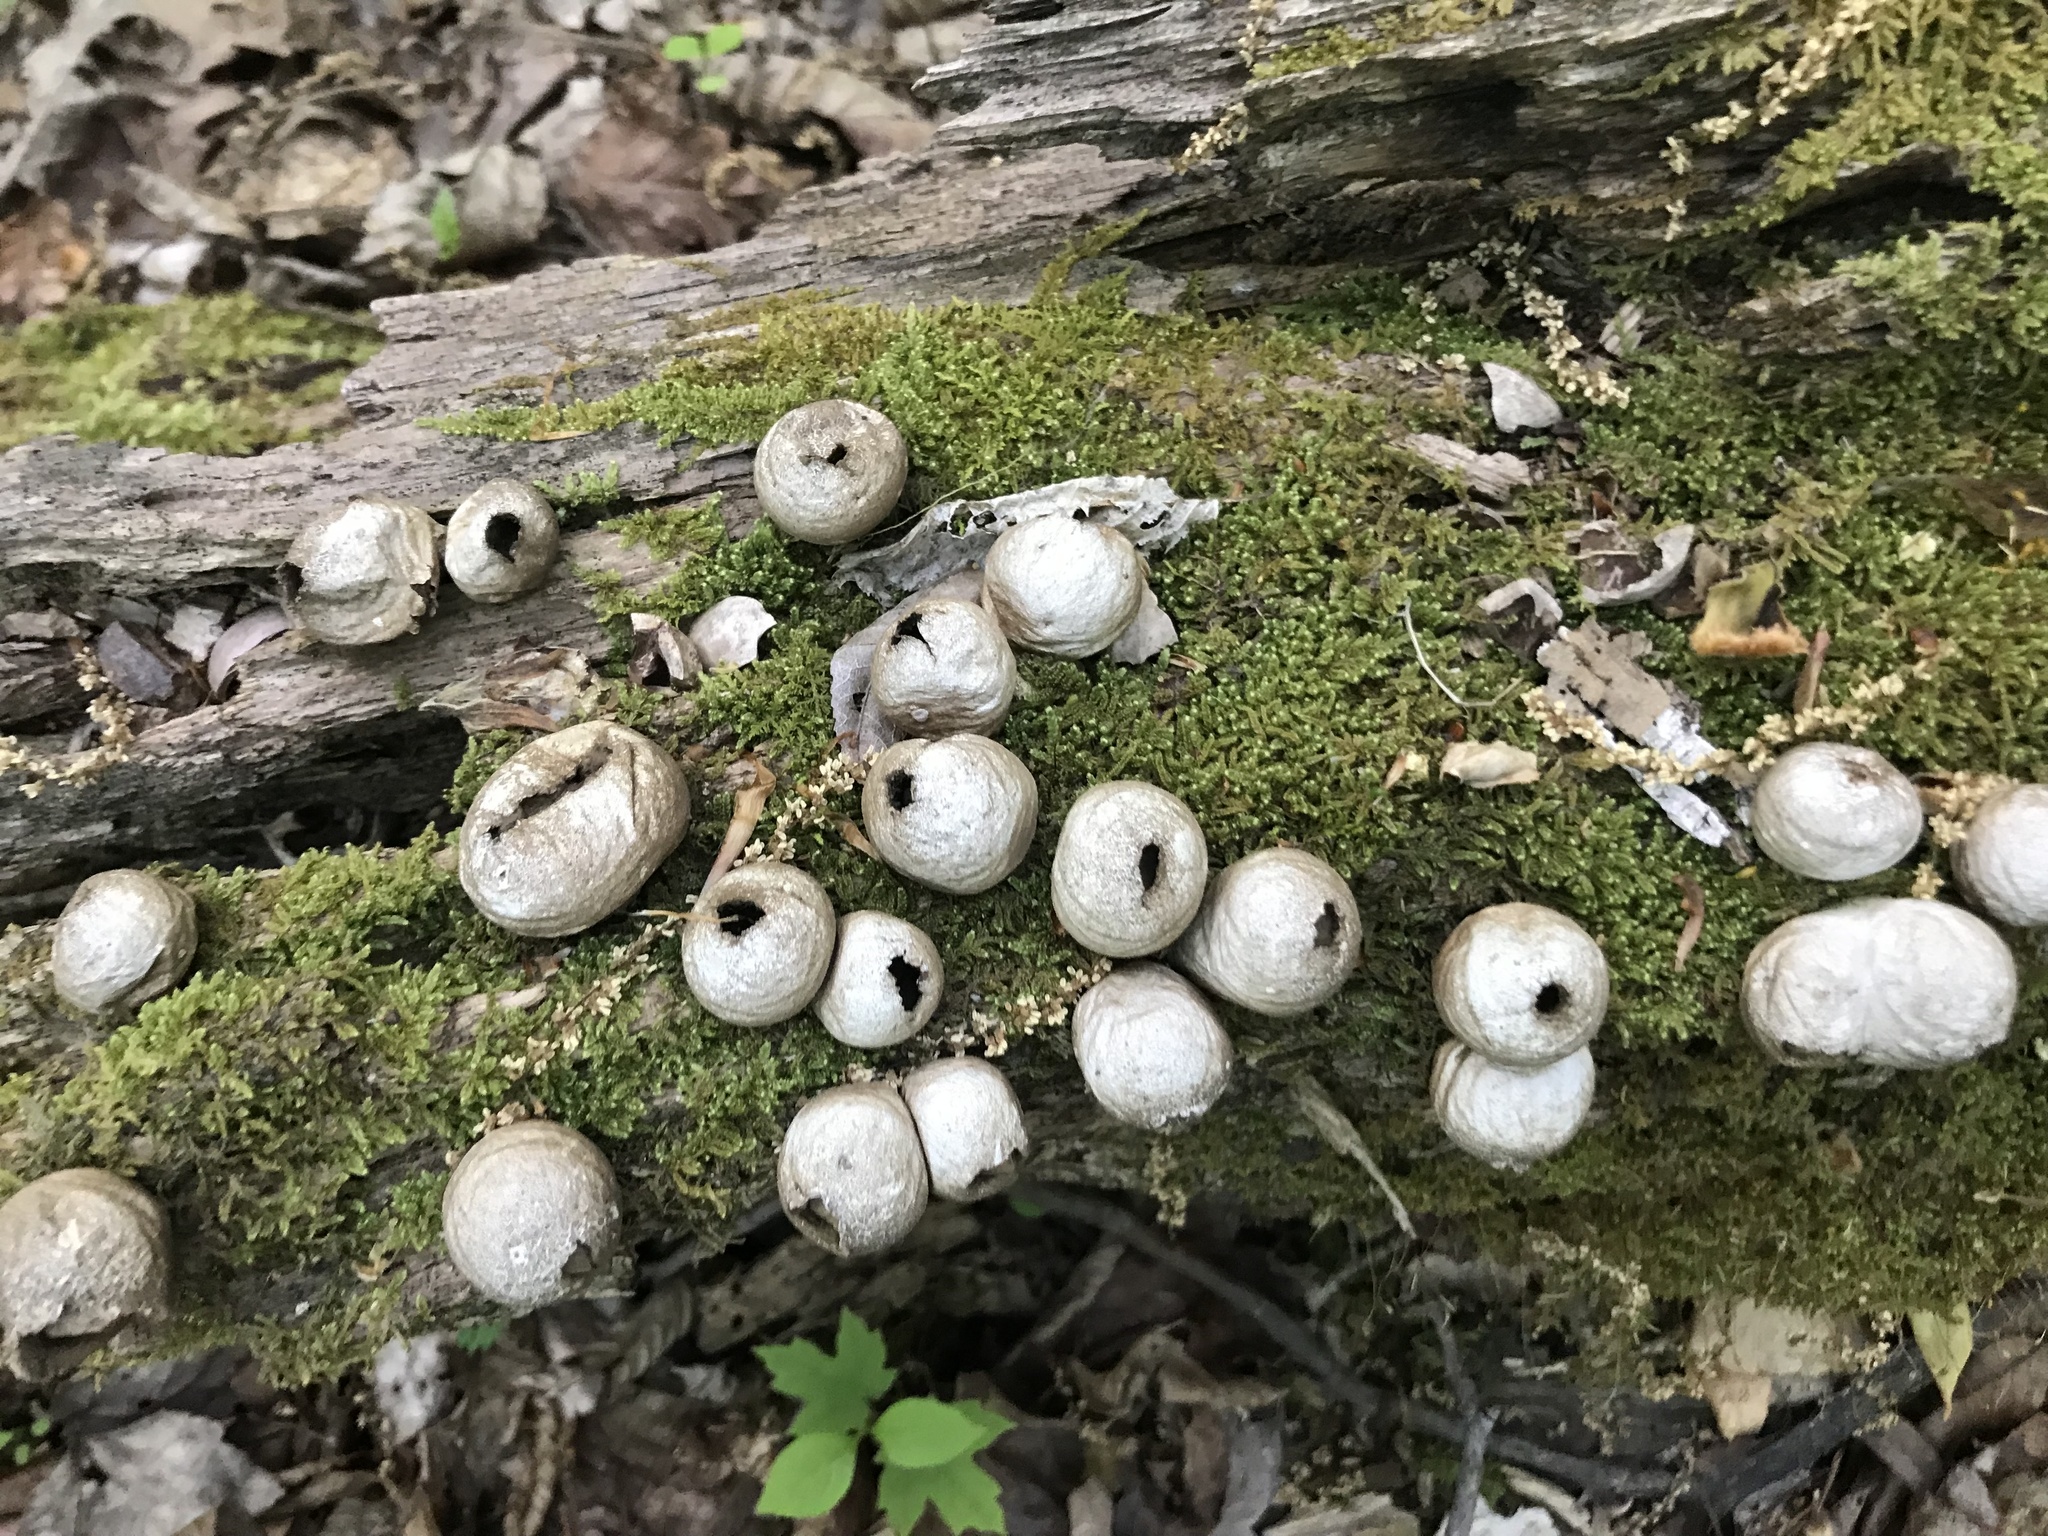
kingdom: Fungi
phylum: Basidiomycota
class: Agaricomycetes
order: Agaricales
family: Lycoperdaceae
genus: Apioperdon
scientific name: Apioperdon pyriforme
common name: Pear-shaped puffball
